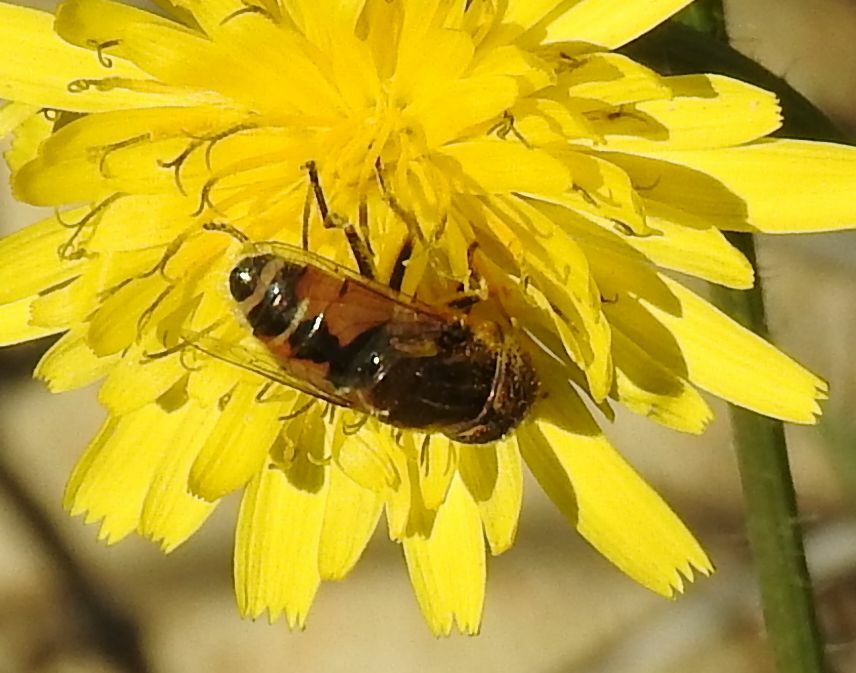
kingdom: Animalia
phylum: Arthropoda
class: Insecta
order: Diptera
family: Syrphidae
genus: Eristalinus
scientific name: Eristalinus megacephalus
